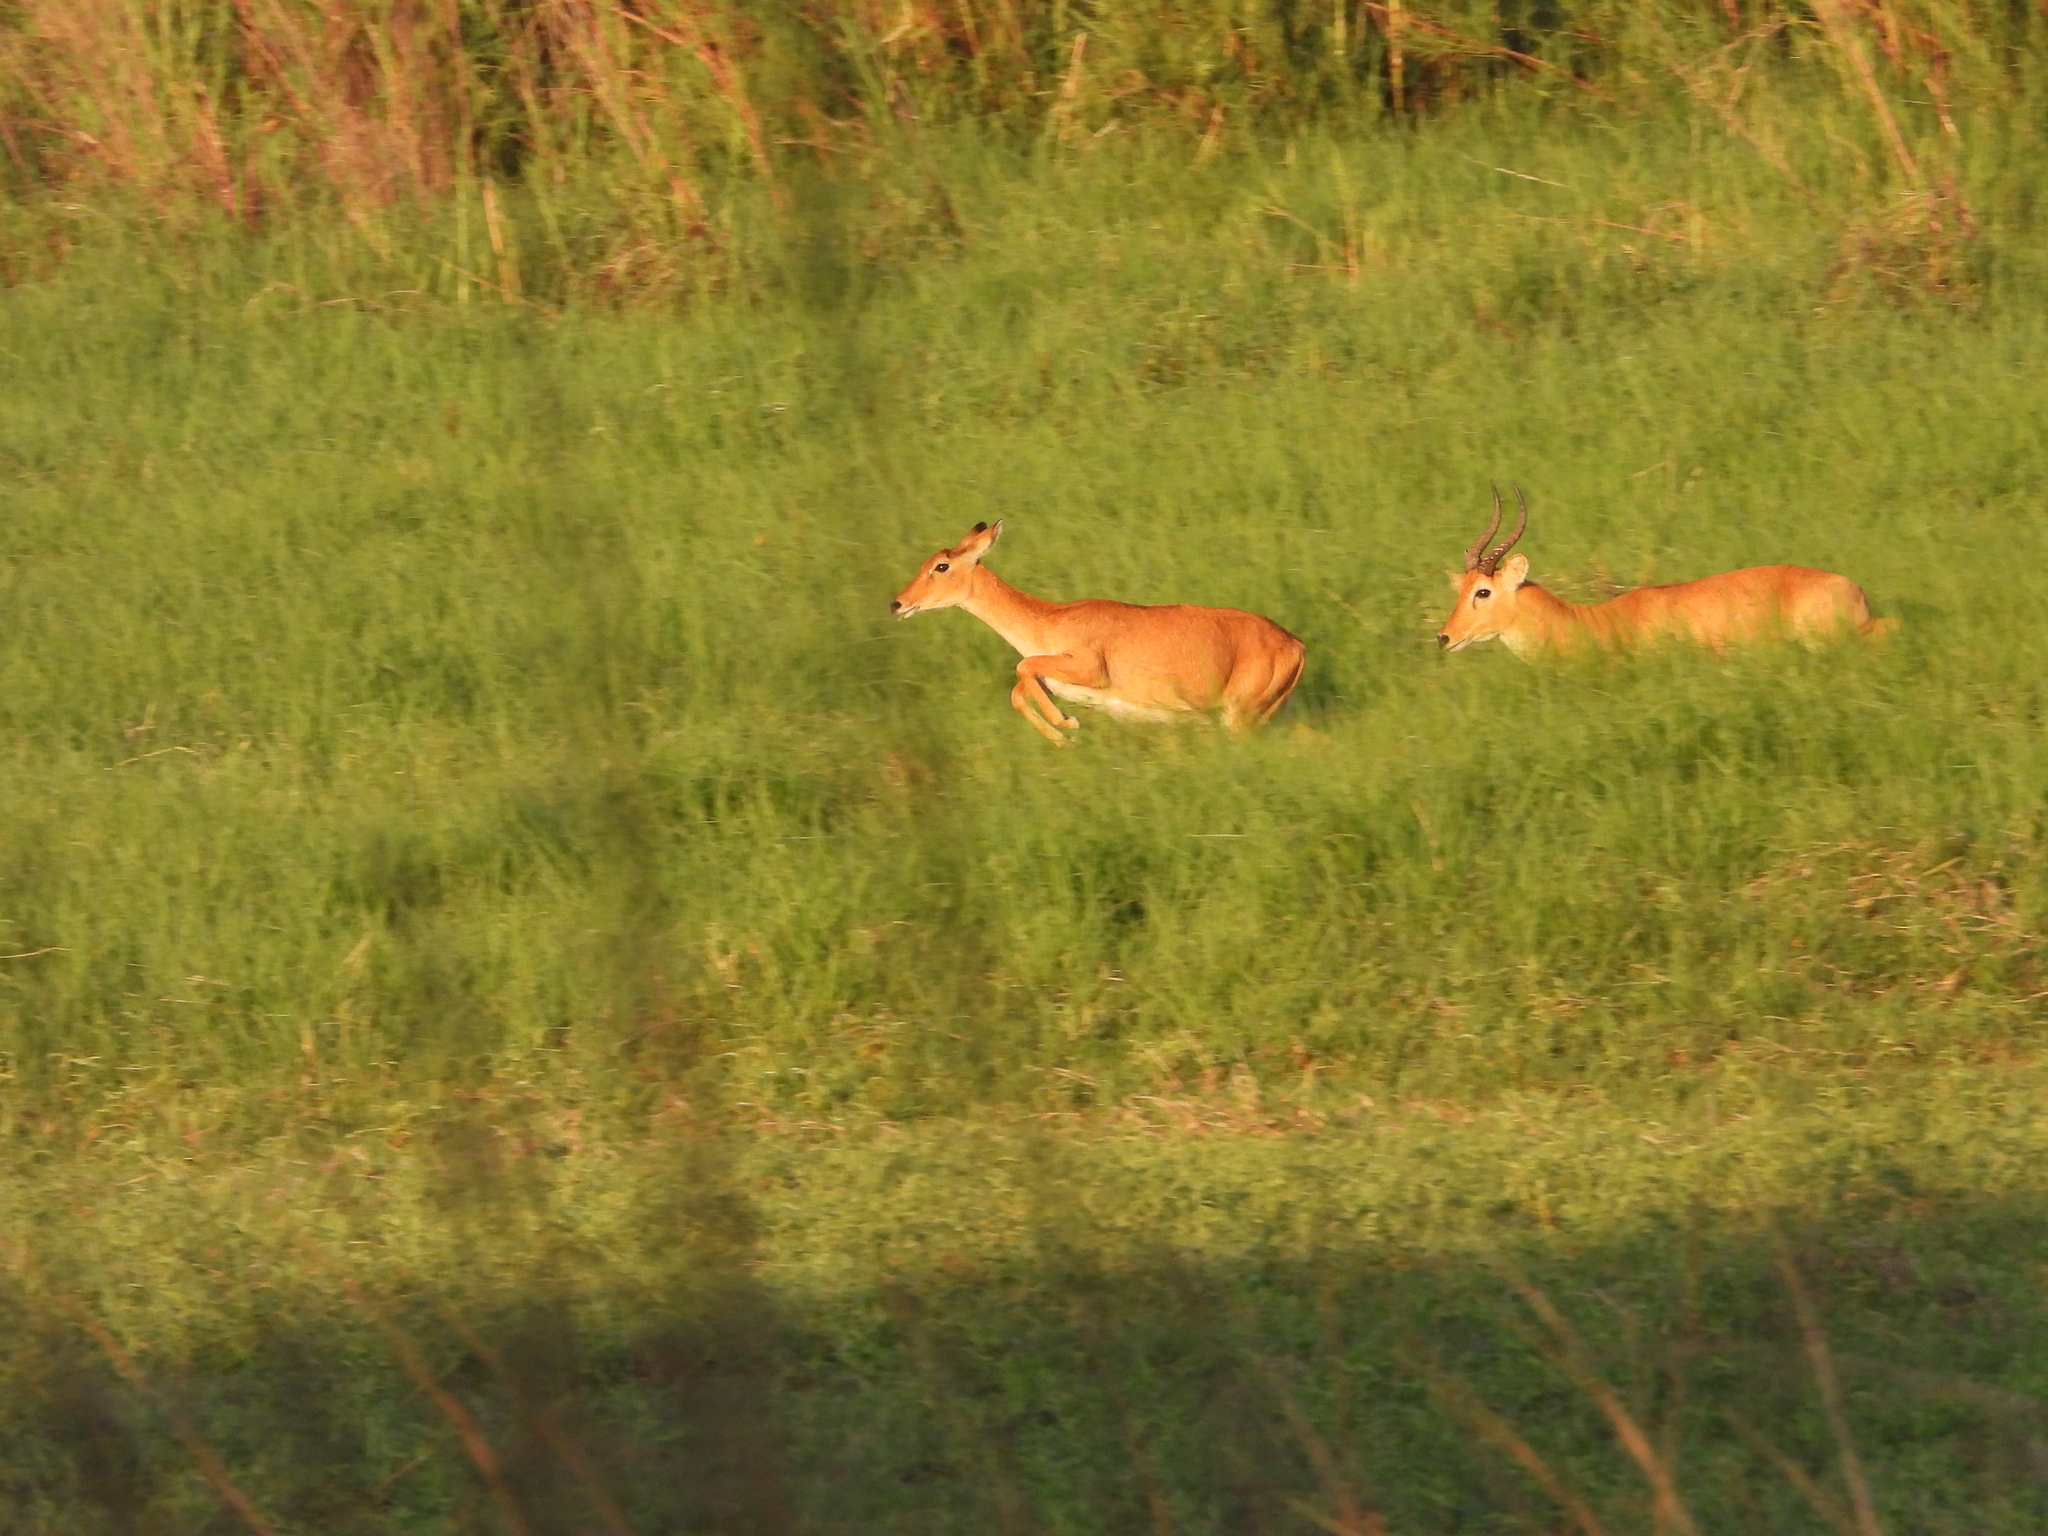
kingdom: Animalia
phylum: Chordata
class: Mammalia
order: Artiodactyla
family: Bovidae
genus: Kobus
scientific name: Kobus vardonii
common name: Puku
